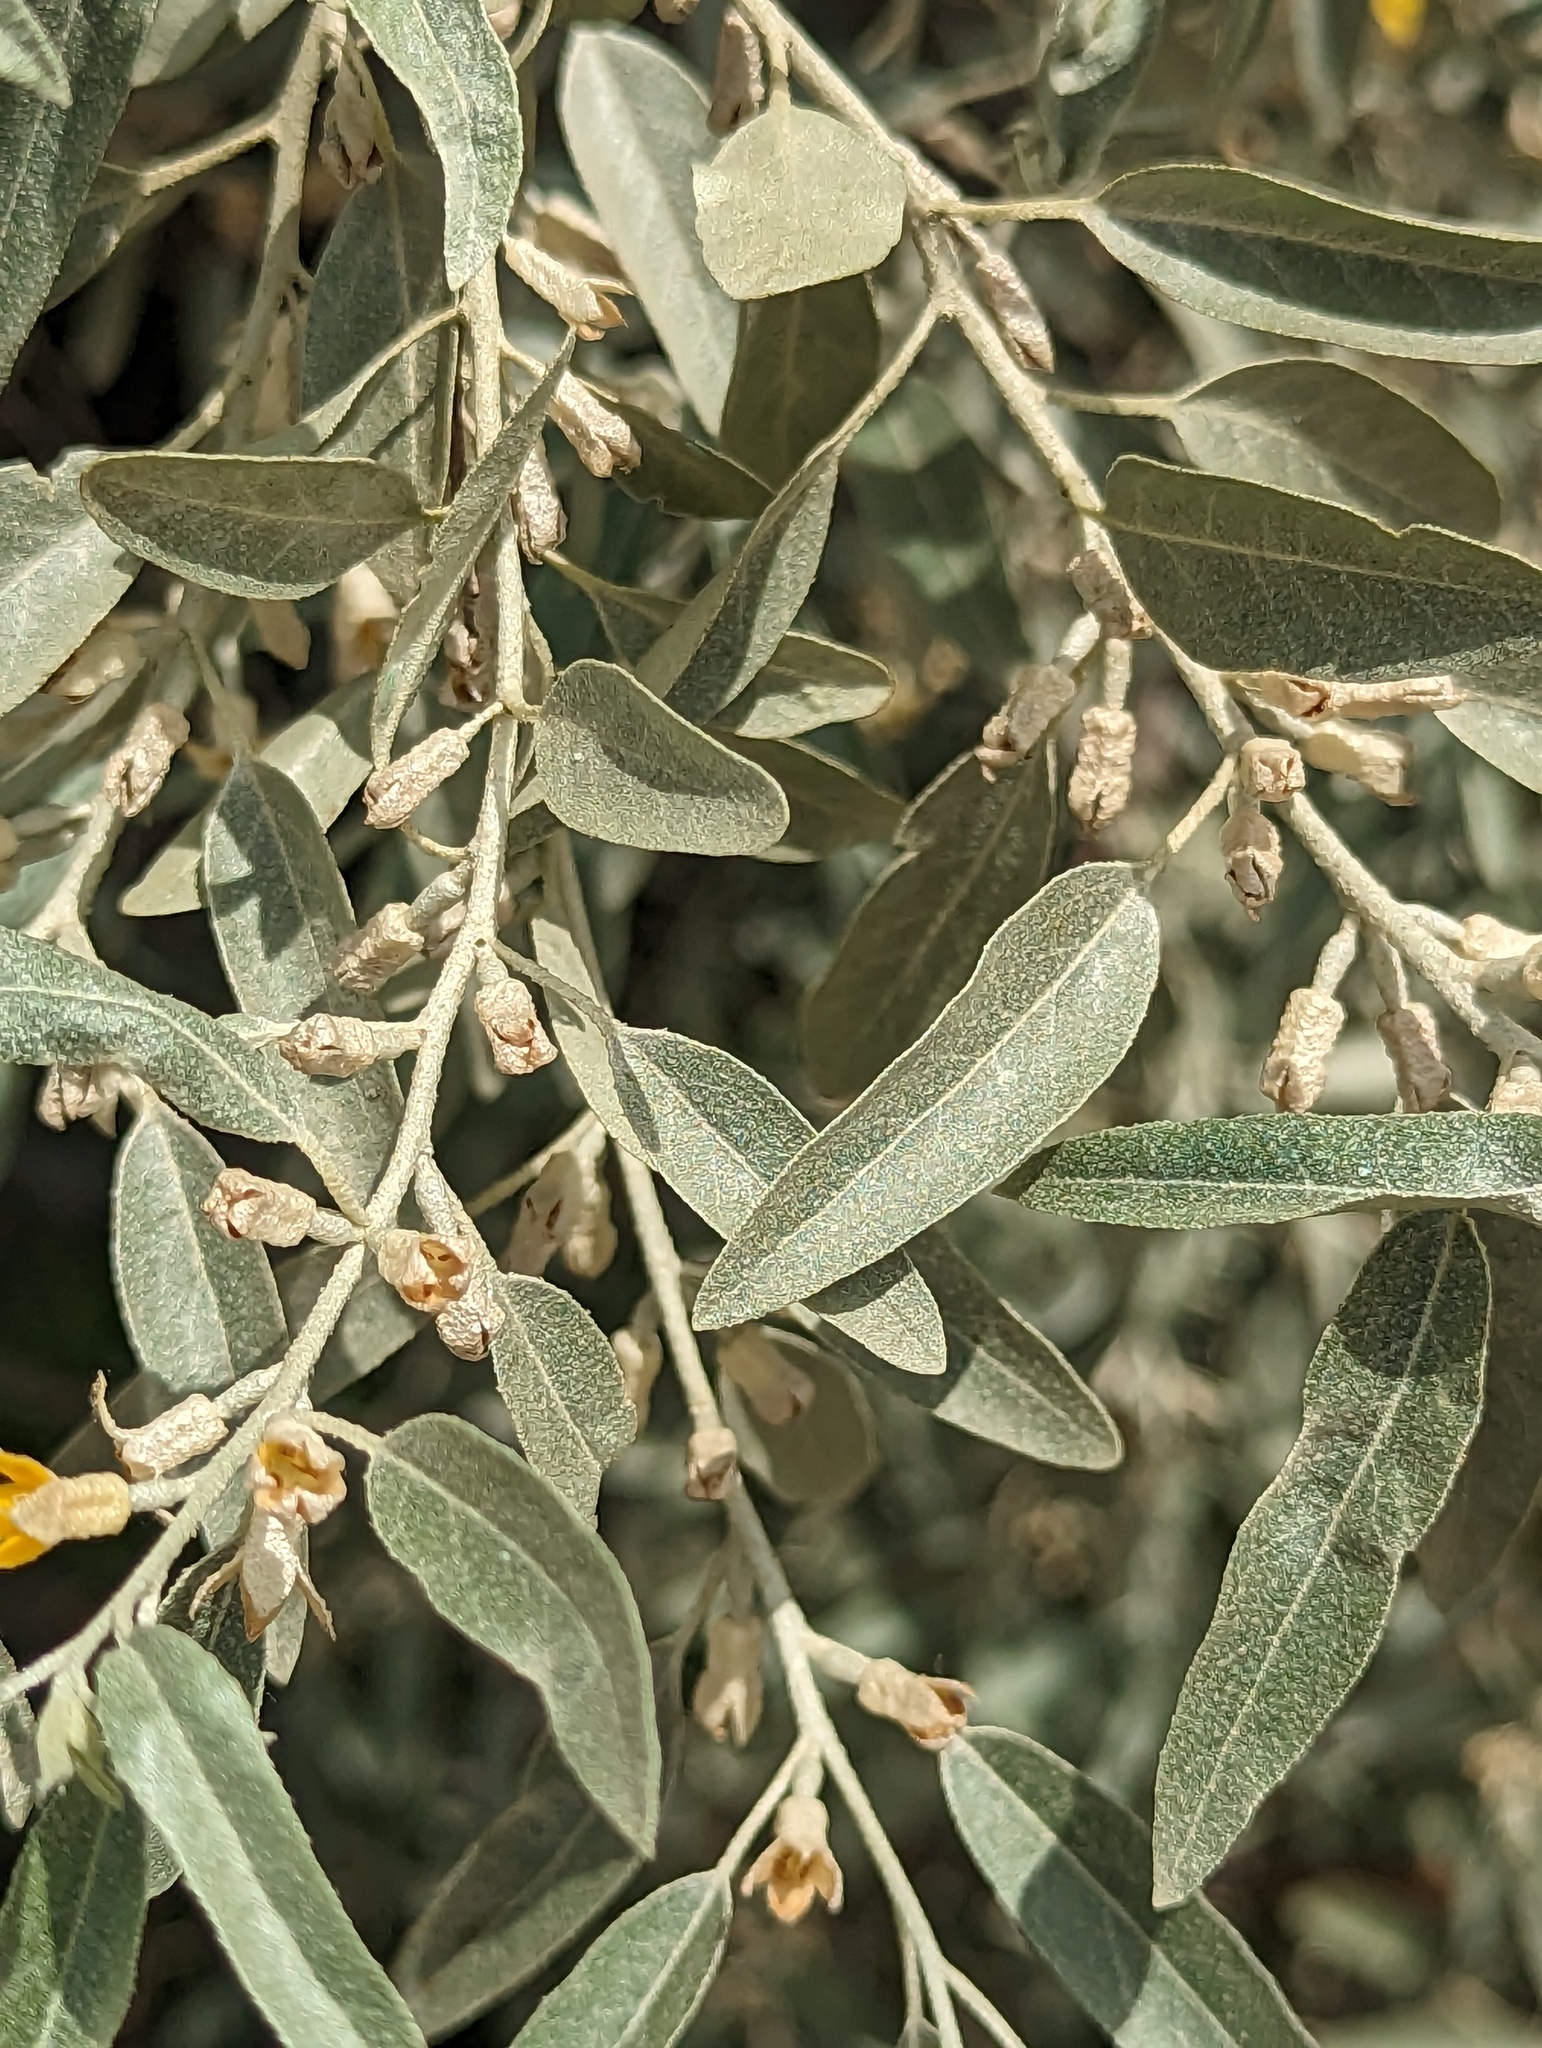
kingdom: Plantae
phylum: Tracheophyta
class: Magnoliopsida
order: Rosales
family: Elaeagnaceae
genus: Elaeagnus
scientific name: Elaeagnus angustifolia
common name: Russian olive
